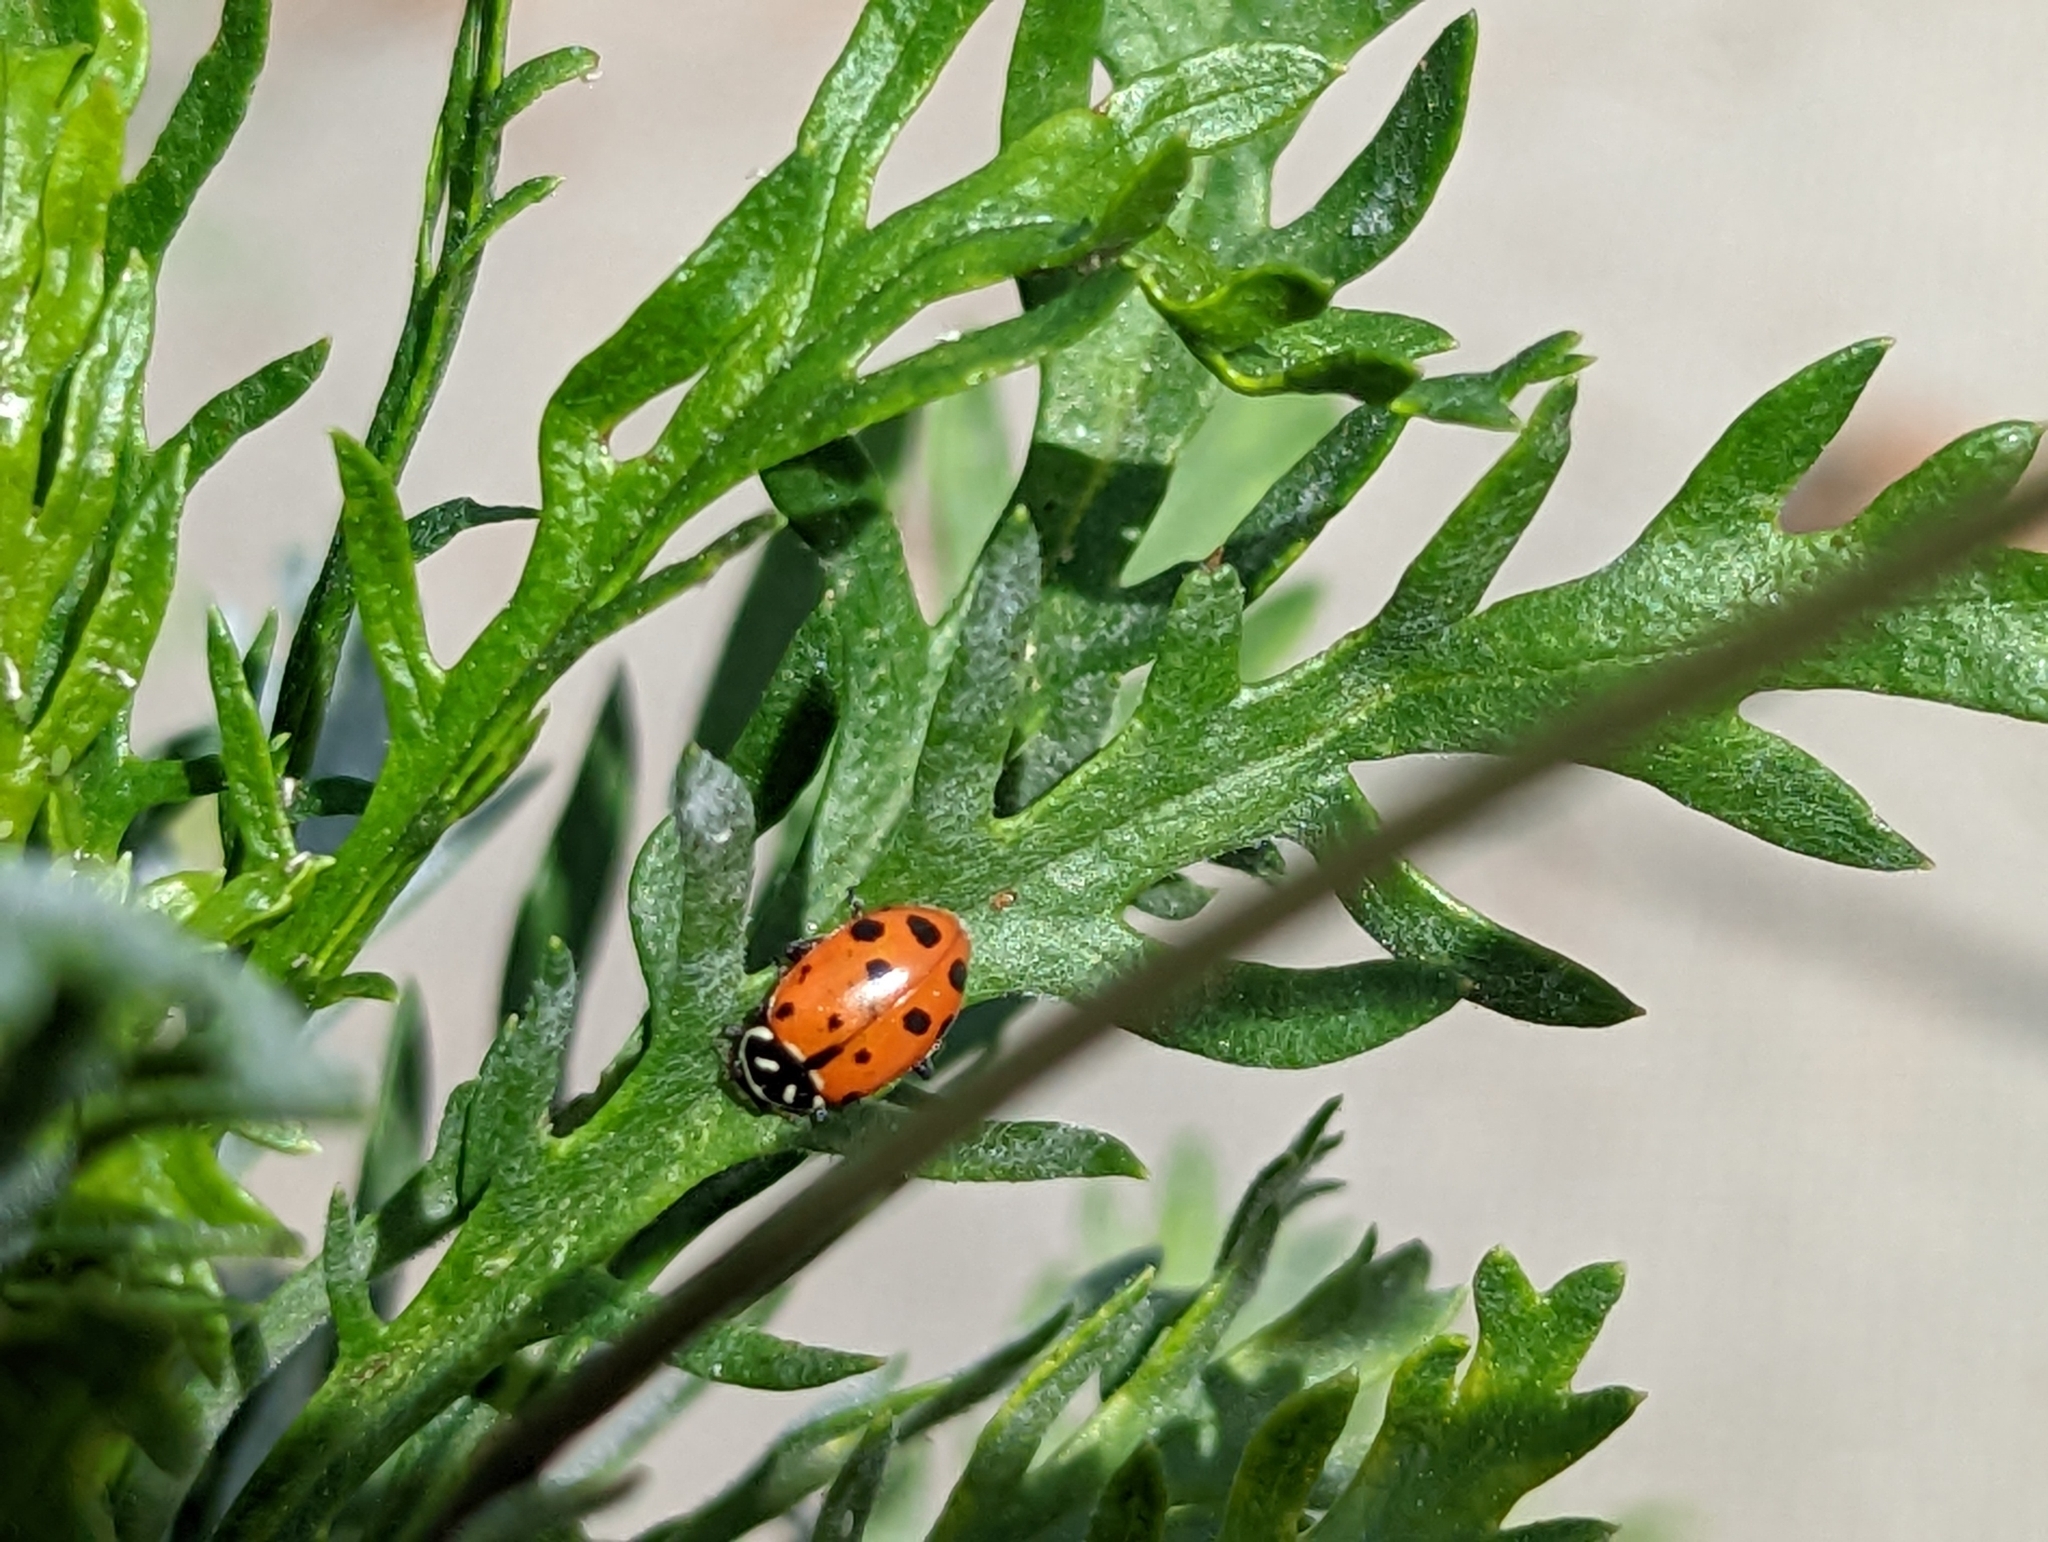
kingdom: Animalia
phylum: Arthropoda
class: Insecta
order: Coleoptera
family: Coccinellidae
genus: Hippodamia
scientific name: Hippodamia convergens
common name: Convergent lady beetle
